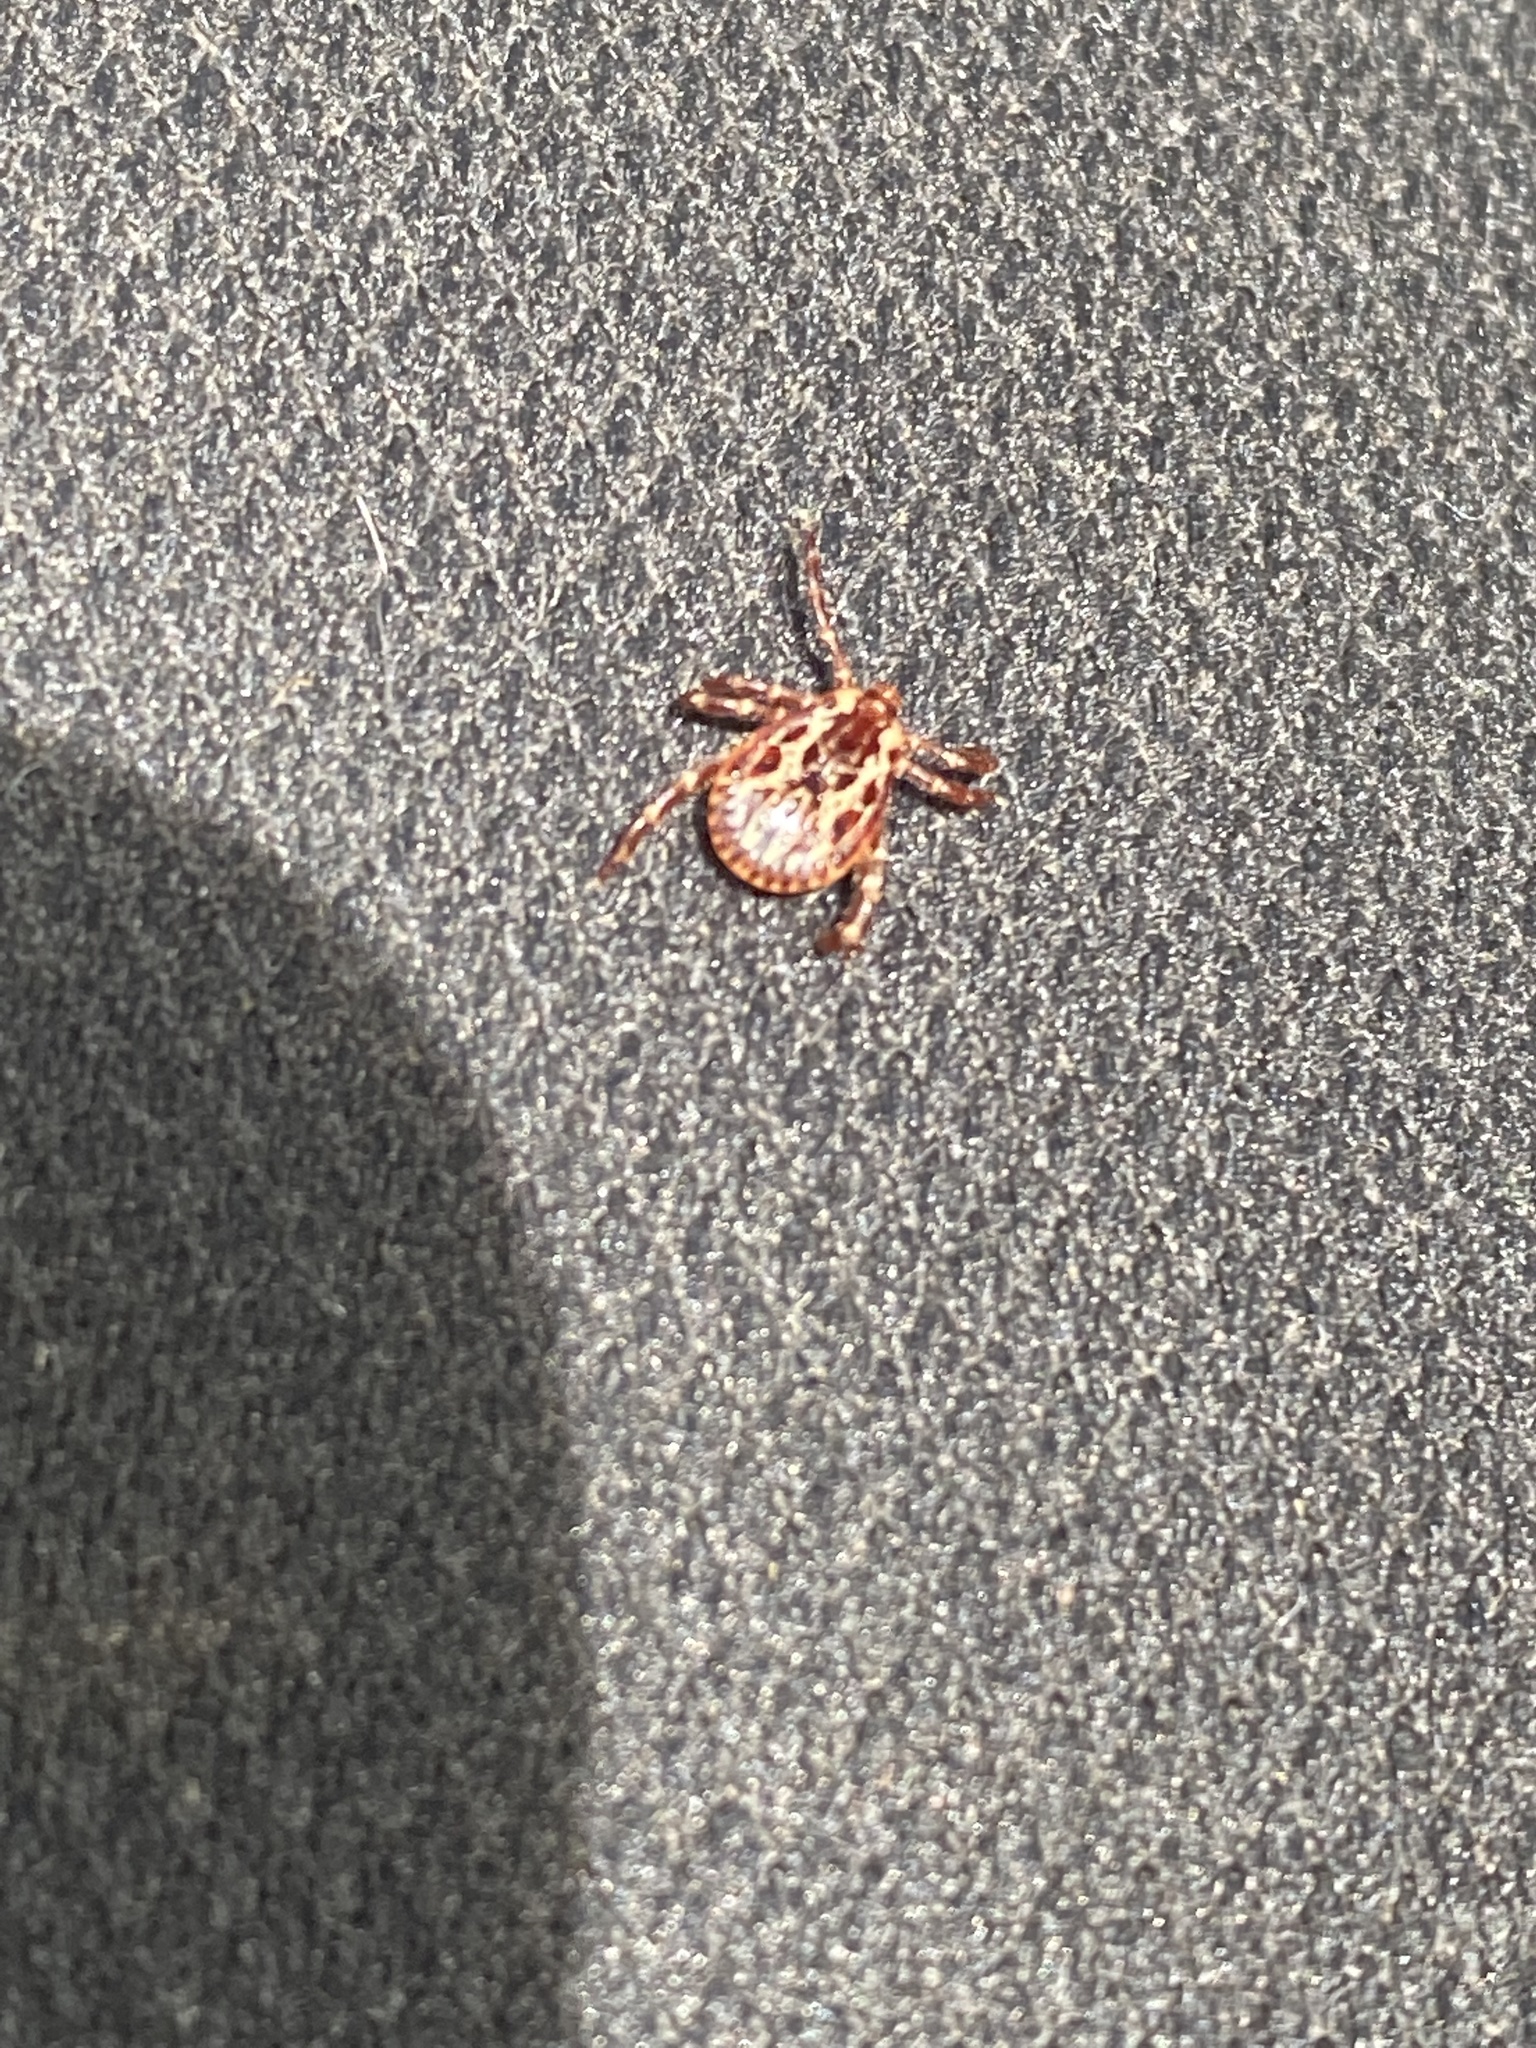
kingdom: Animalia
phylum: Arthropoda
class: Arachnida
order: Ixodida
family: Ixodidae
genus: Dermacentor
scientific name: Dermacentor variabilis
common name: American dog tick
